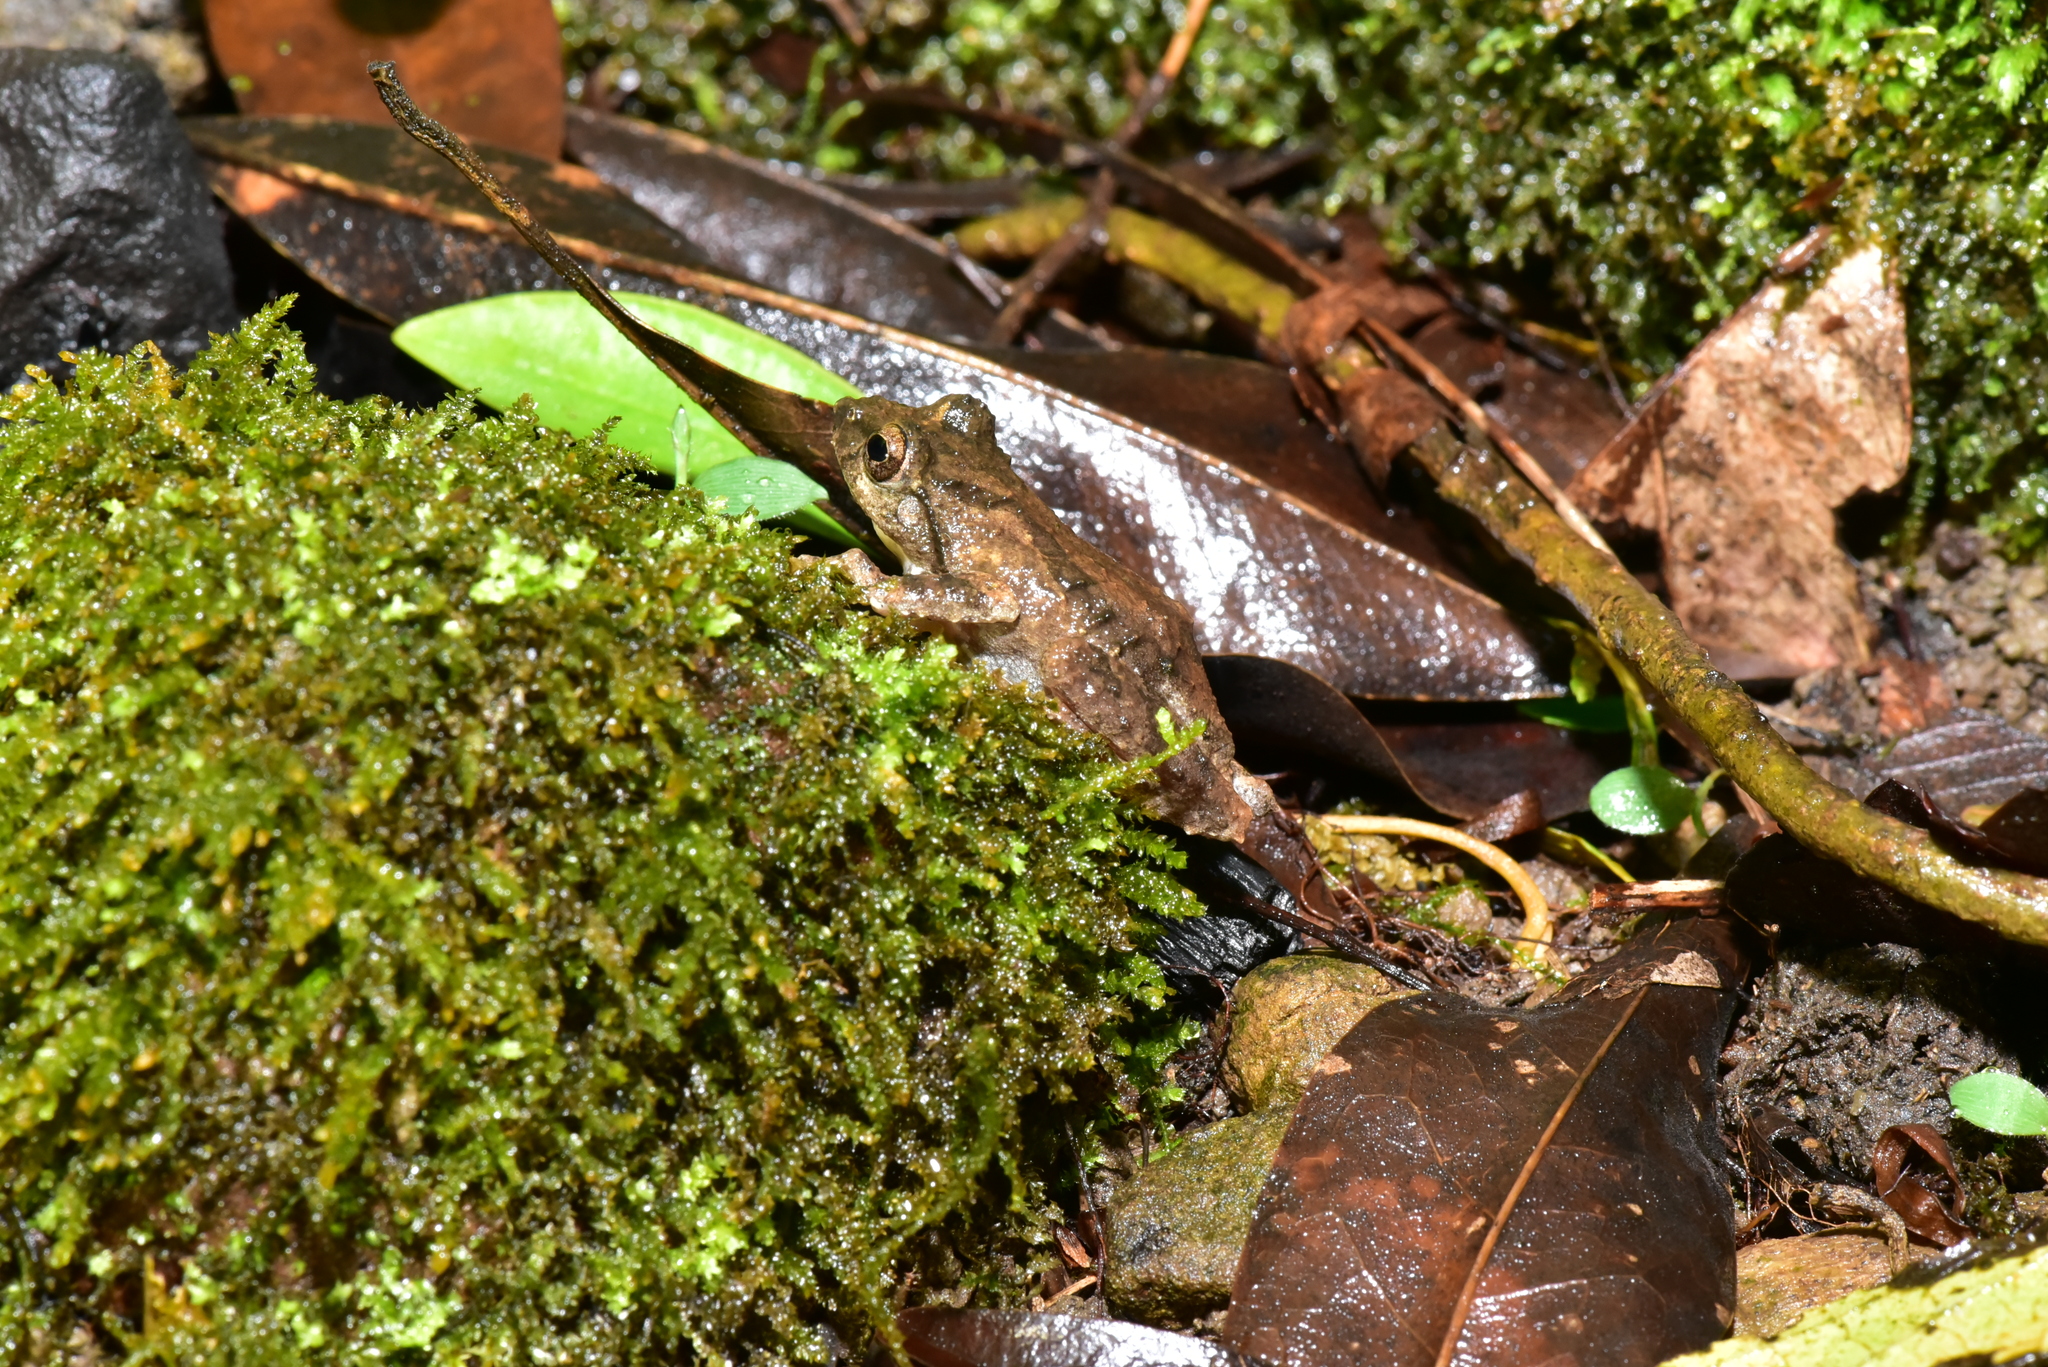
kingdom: Animalia
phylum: Chordata
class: Amphibia
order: Anura
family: Rhacophoridae
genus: Kurixalus
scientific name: Kurixalus idiootocus
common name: Temple treefrog
